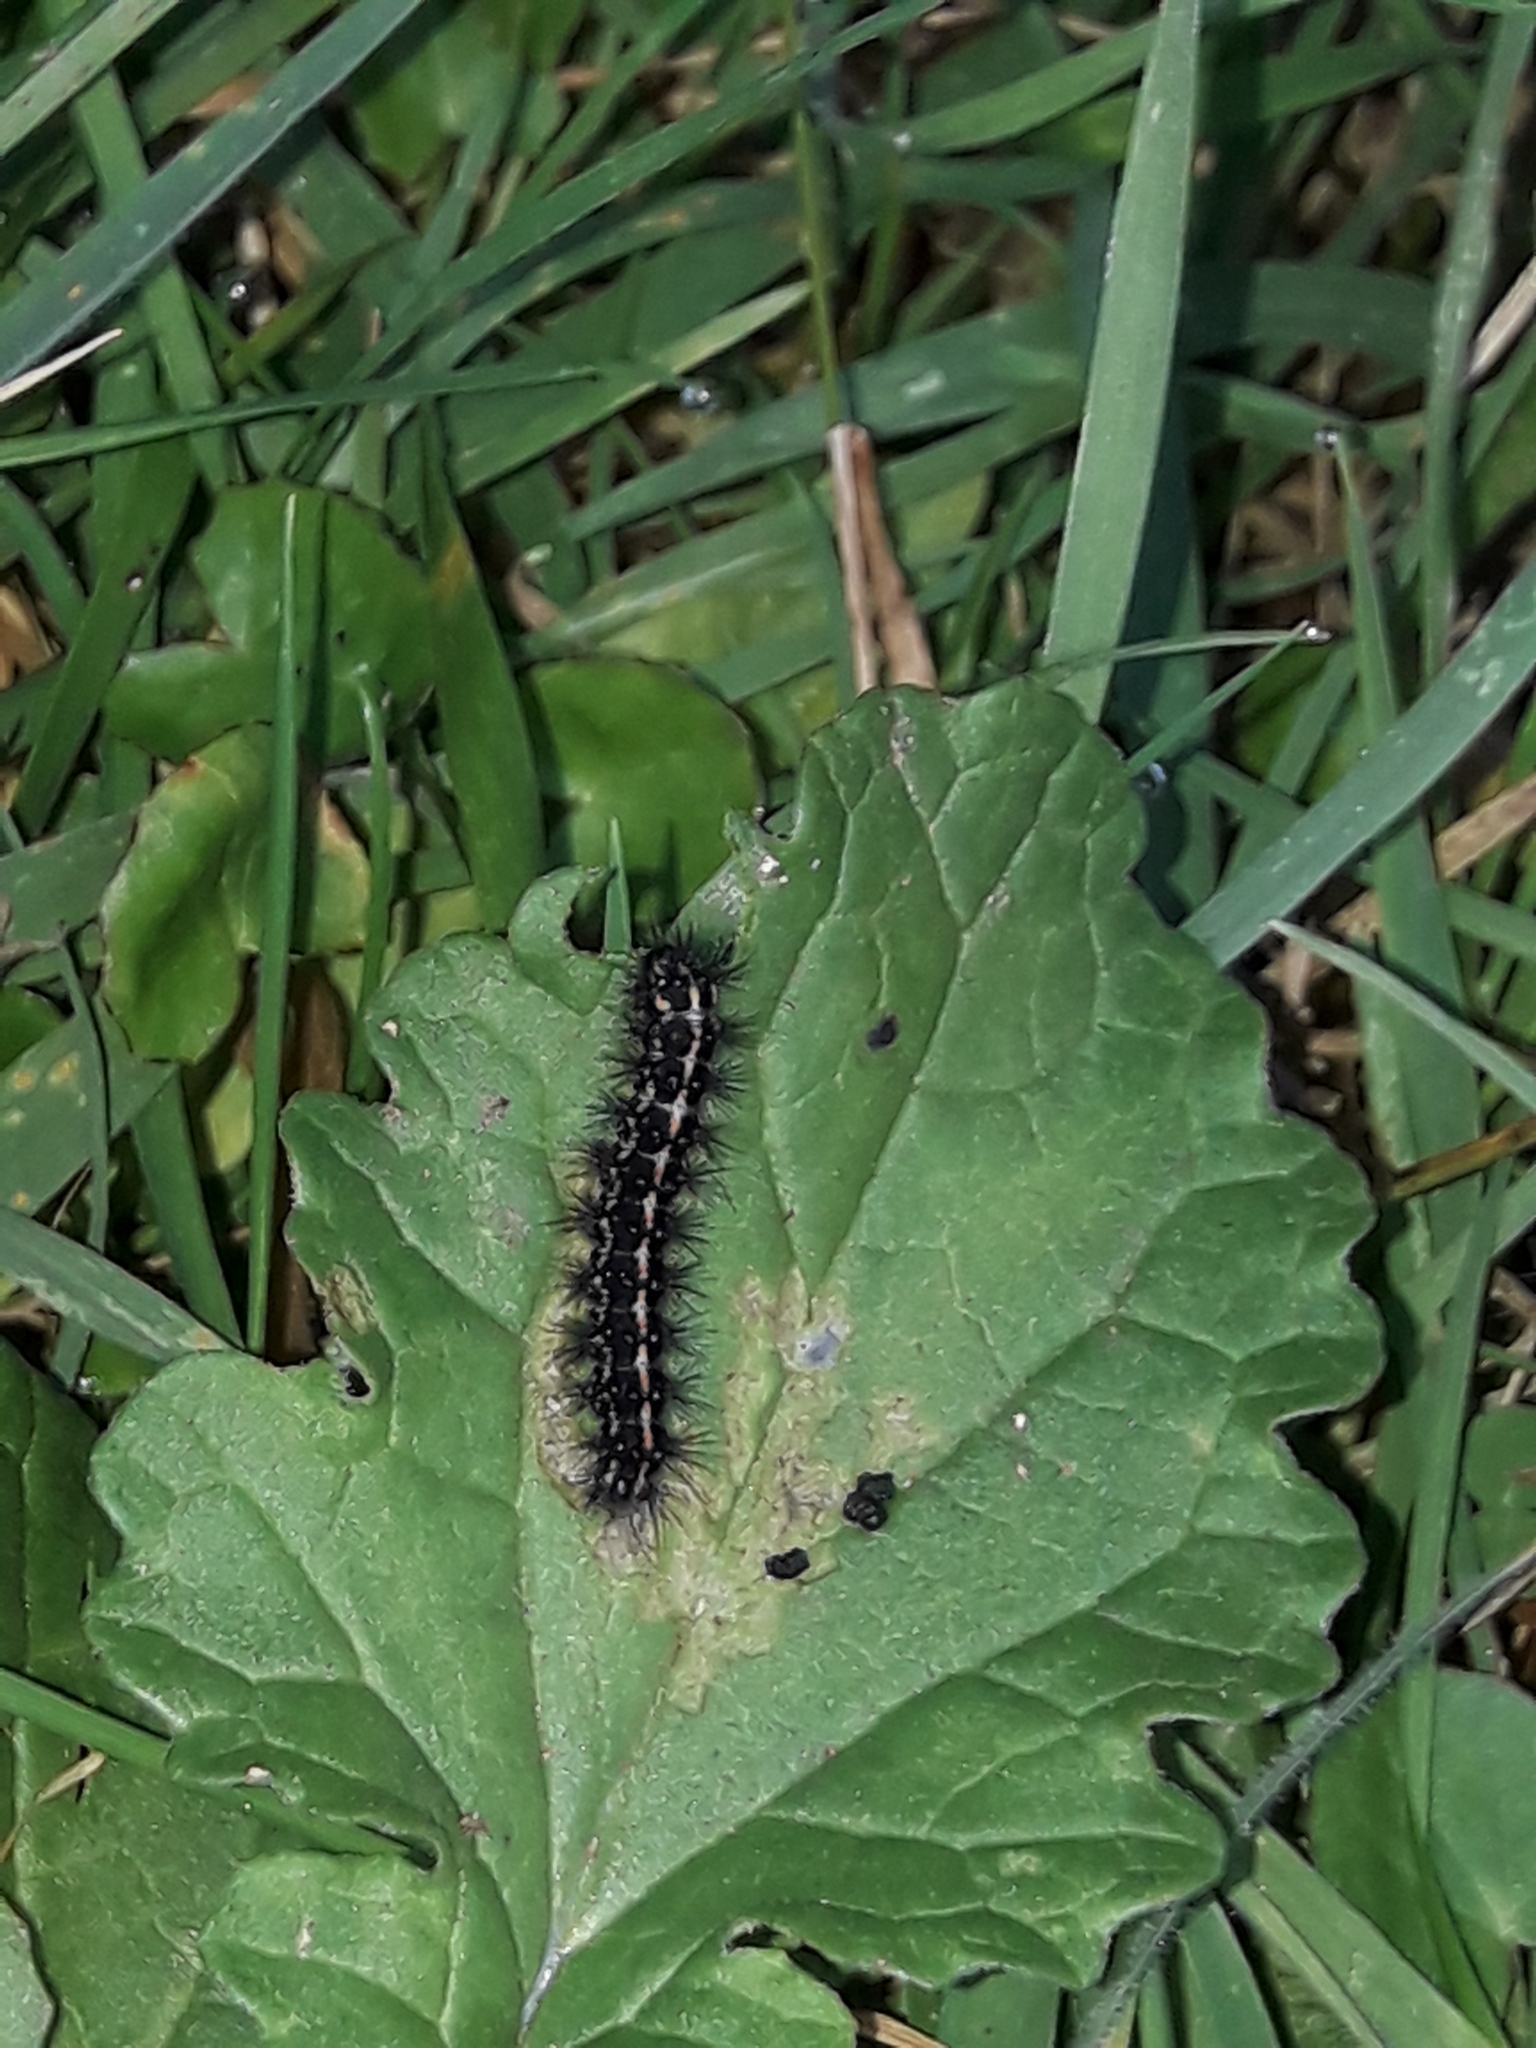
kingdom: Animalia
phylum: Arthropoda
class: Insecta
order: Lepidoptera
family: Erebidae
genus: Nyctemera
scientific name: Nyctemera annulatum
